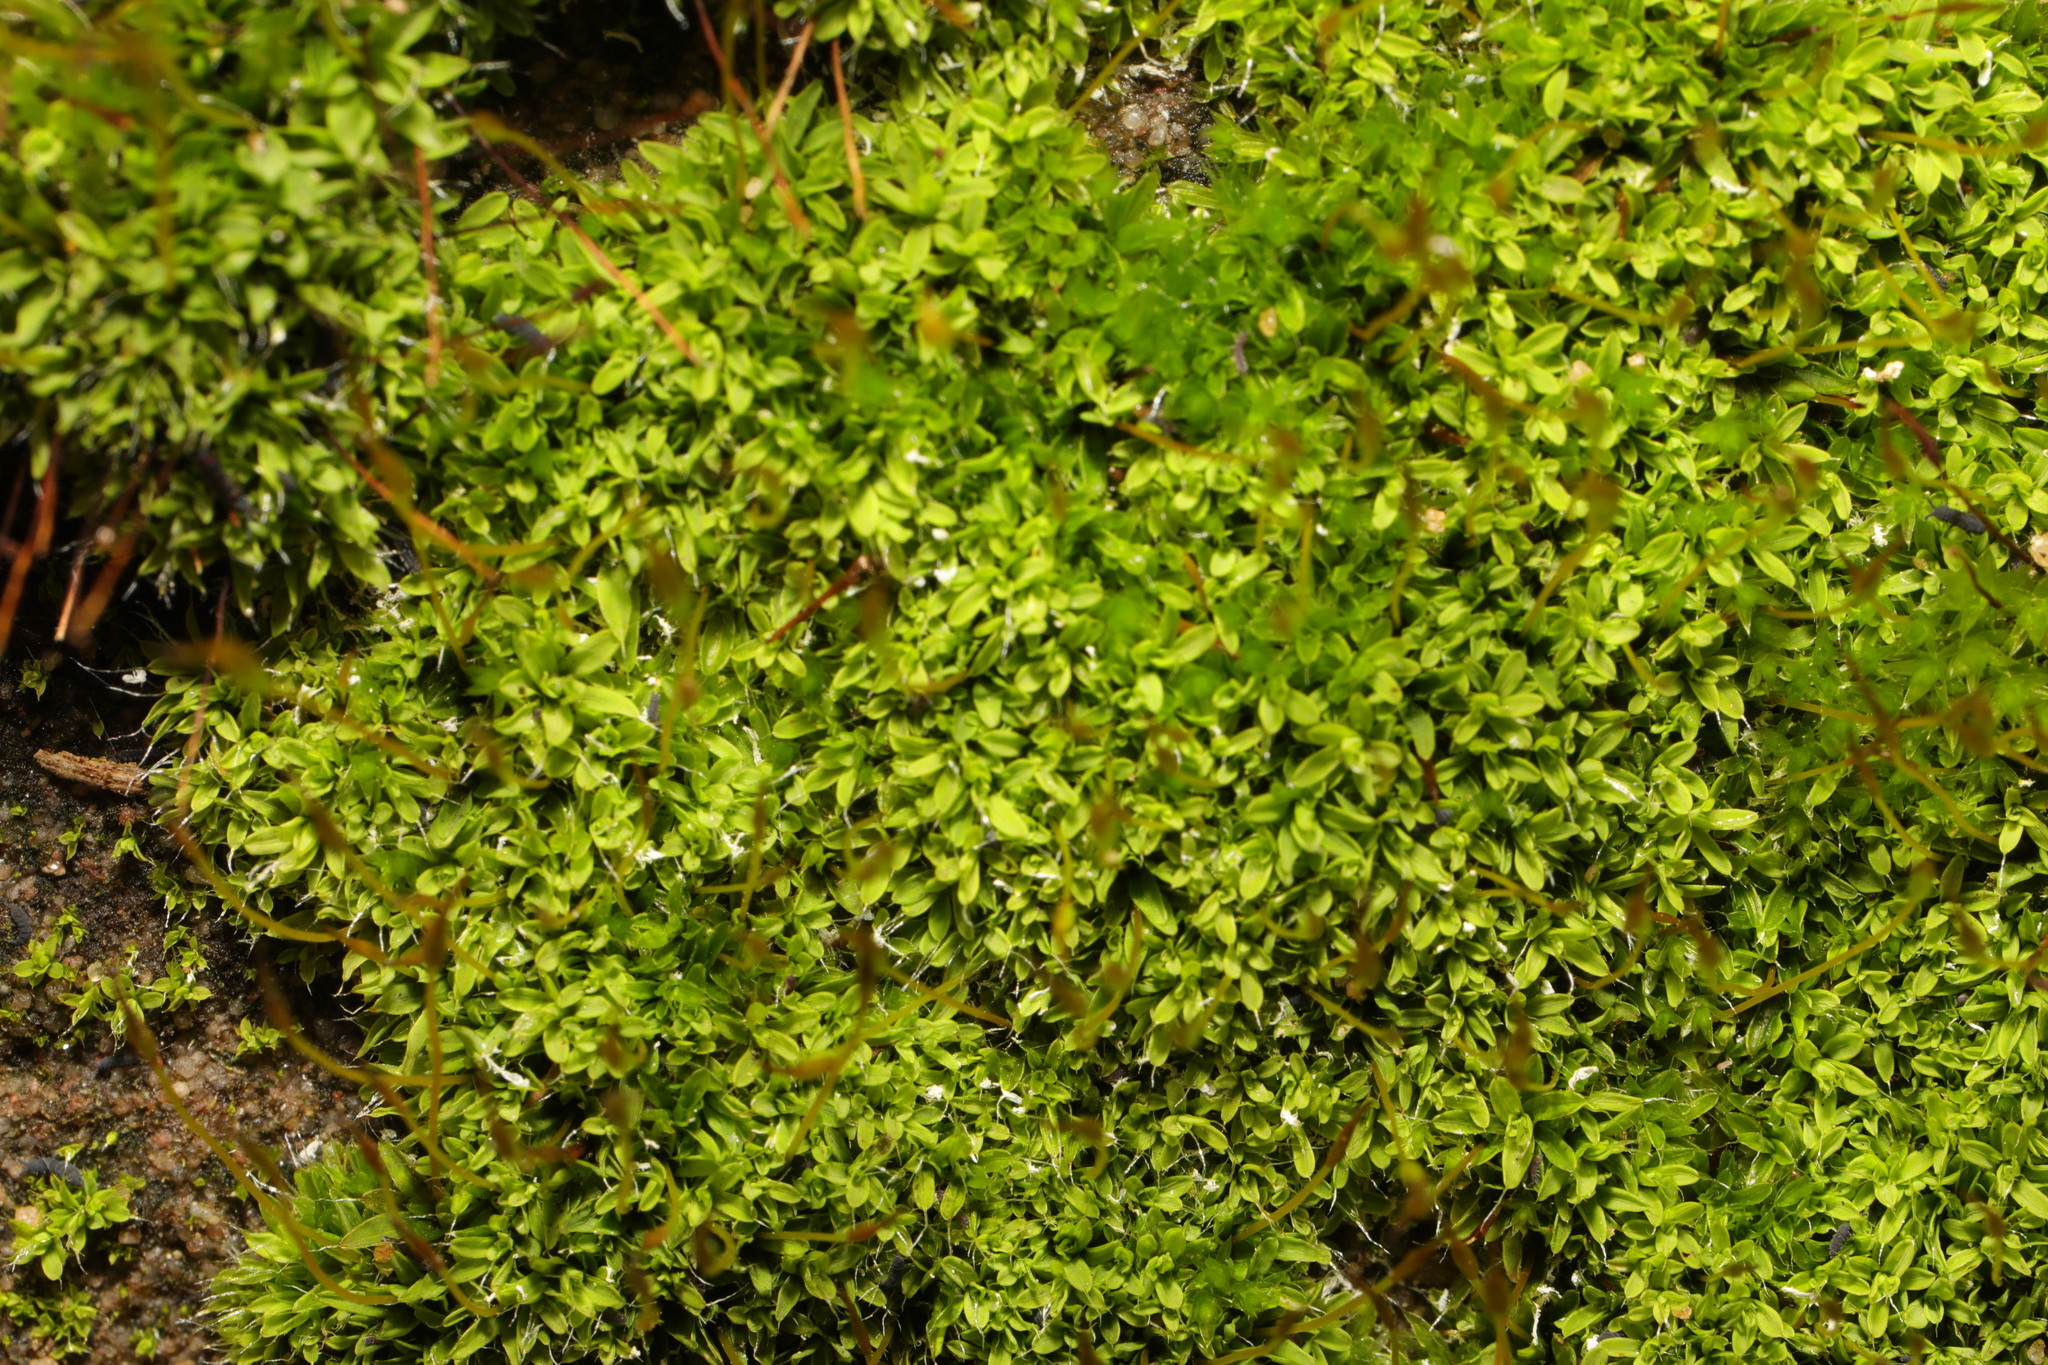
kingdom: Plantae
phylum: Bryophyta
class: Bryopsida
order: Pottiales
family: Pottiaceae
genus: Tortula
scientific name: Tortula muralis
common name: Wall screw-moss
